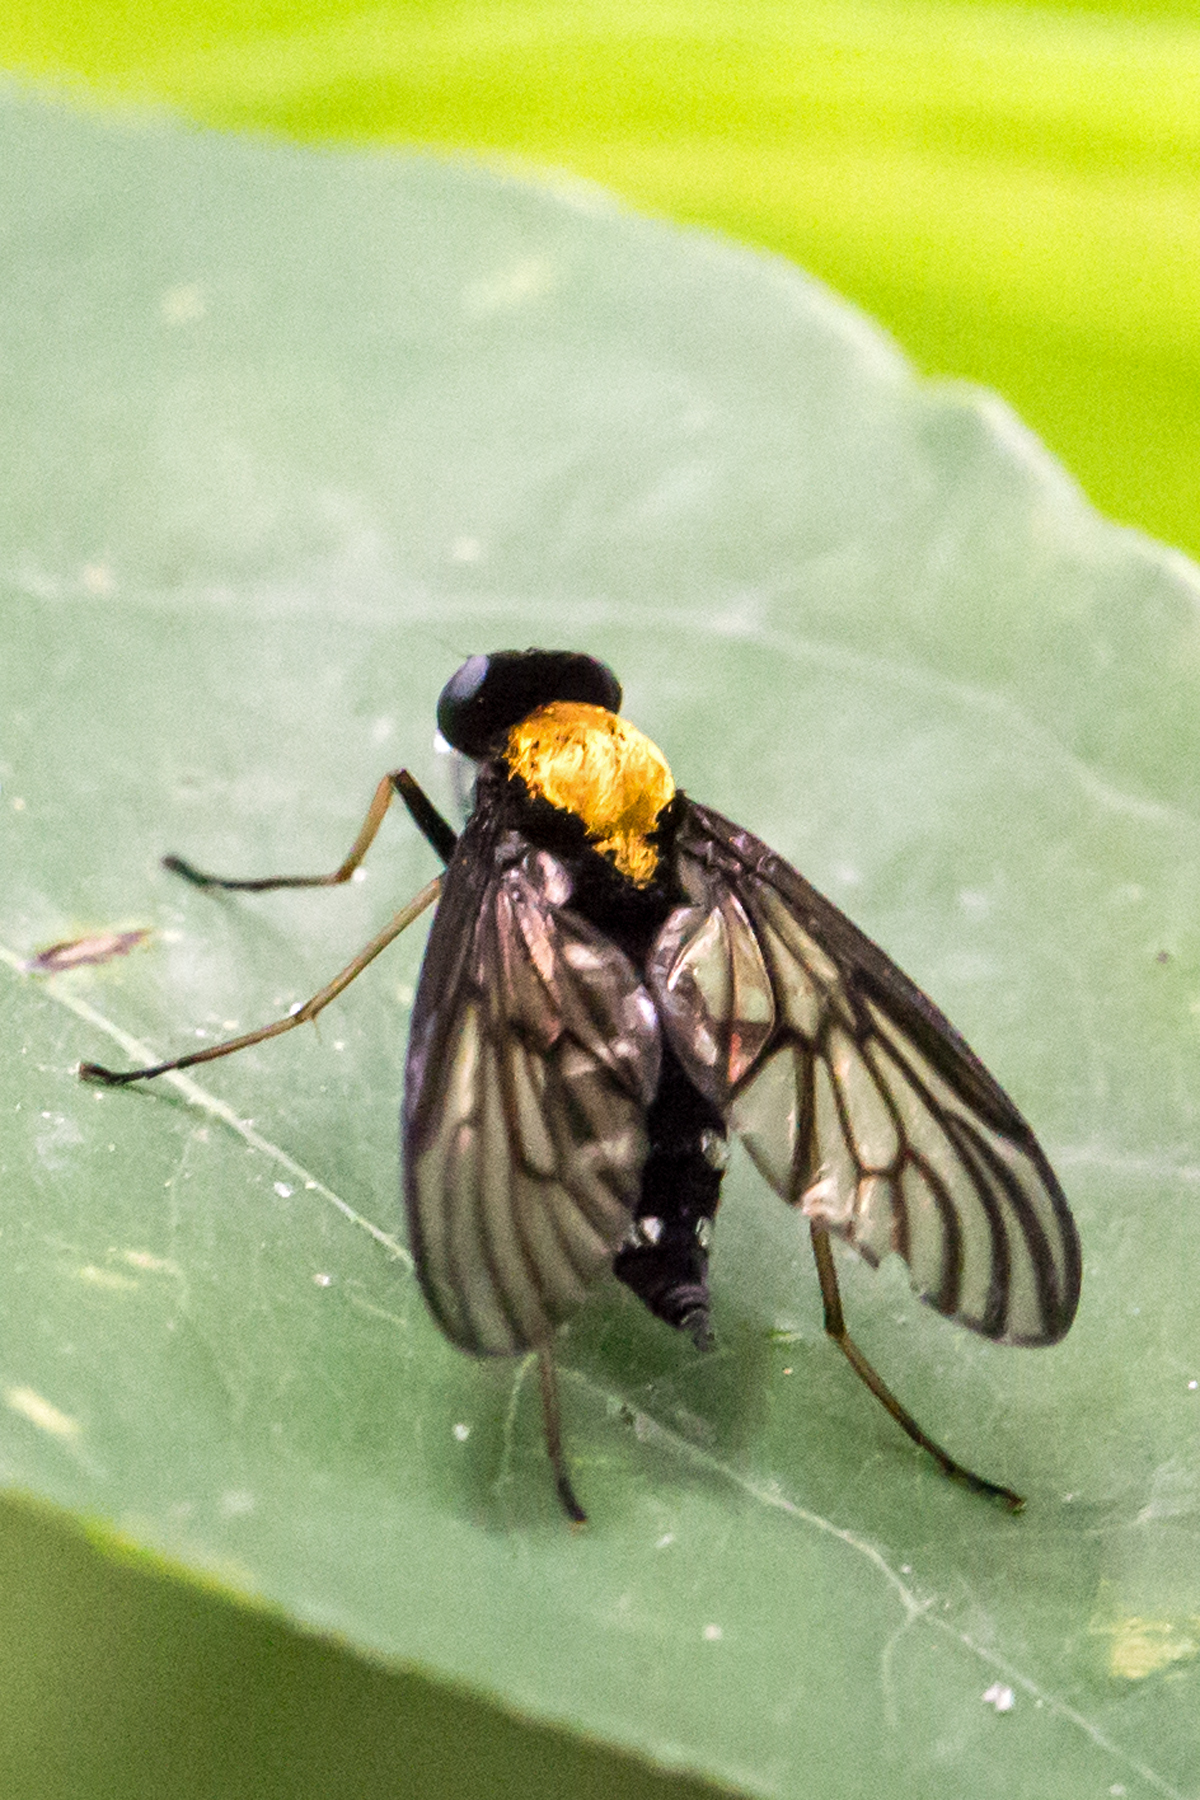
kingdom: Animalia
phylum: Arthropoda
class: Insecta
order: Diptera
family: Rhagionidae
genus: Chrysopilus
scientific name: Chrysopilus thoracicus
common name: Golden-backed snipe fly
